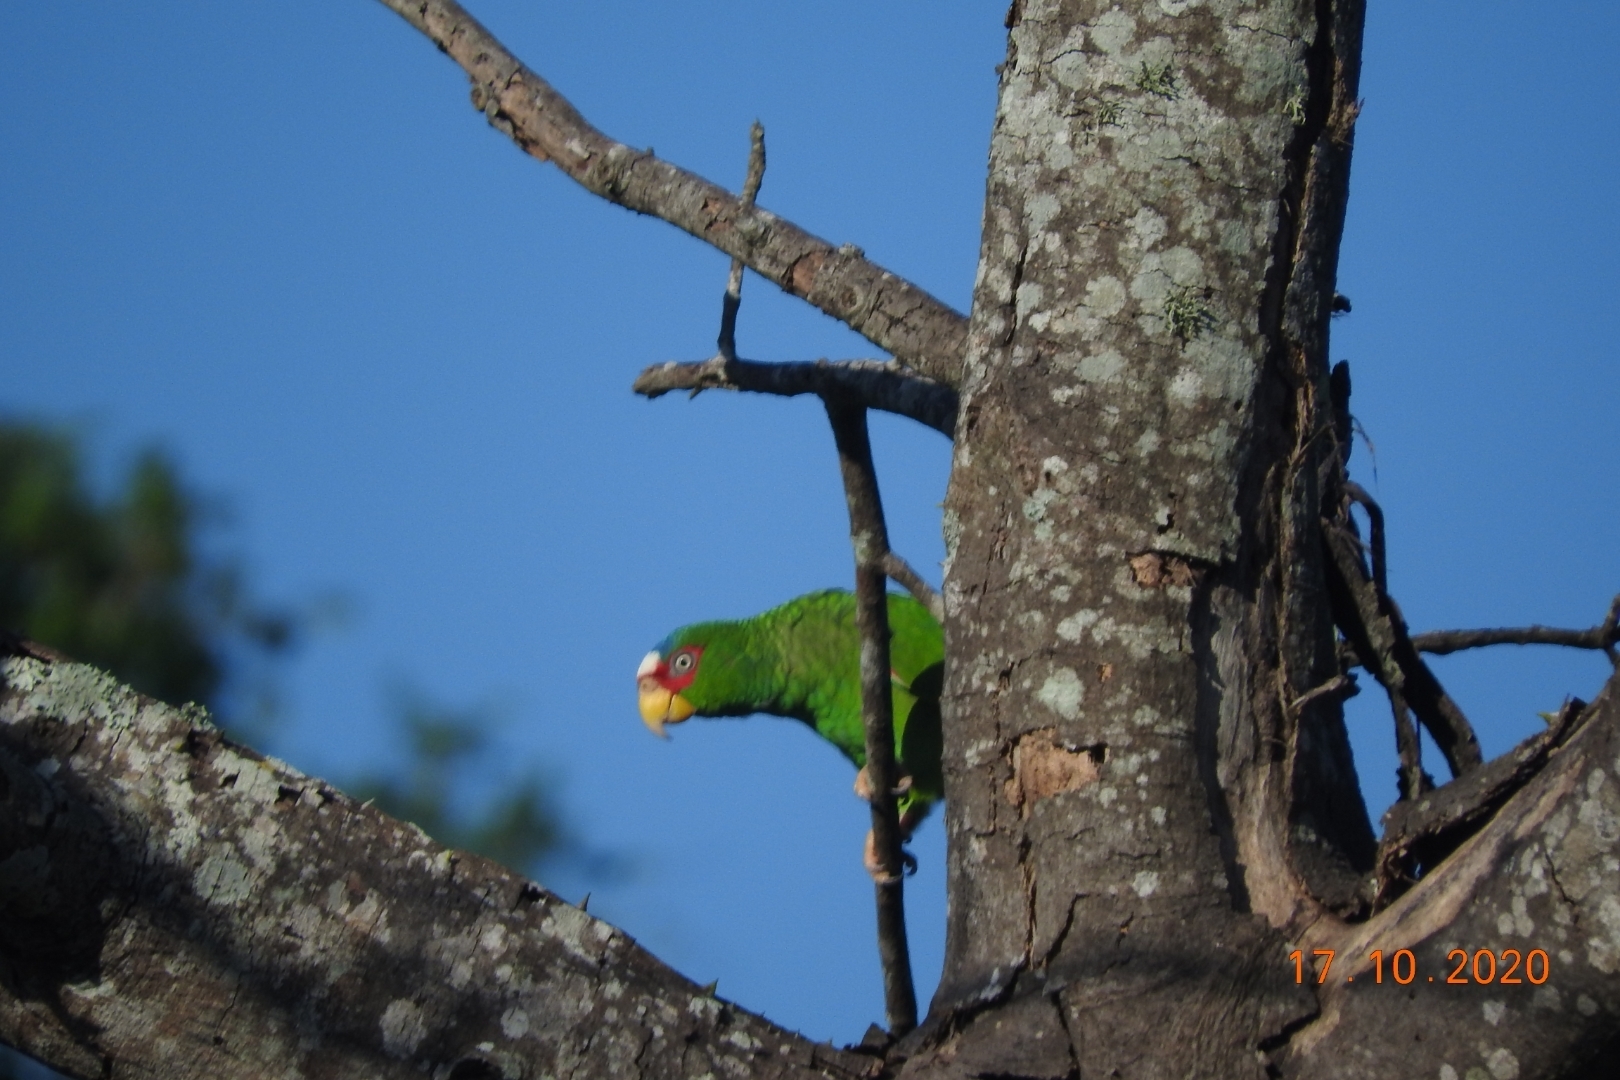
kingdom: Animalia
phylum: Chordata
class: Aves
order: Psittaciformes
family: Psittacidae
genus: Amazona
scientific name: Amazona albifrons
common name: White-fronted amazon
